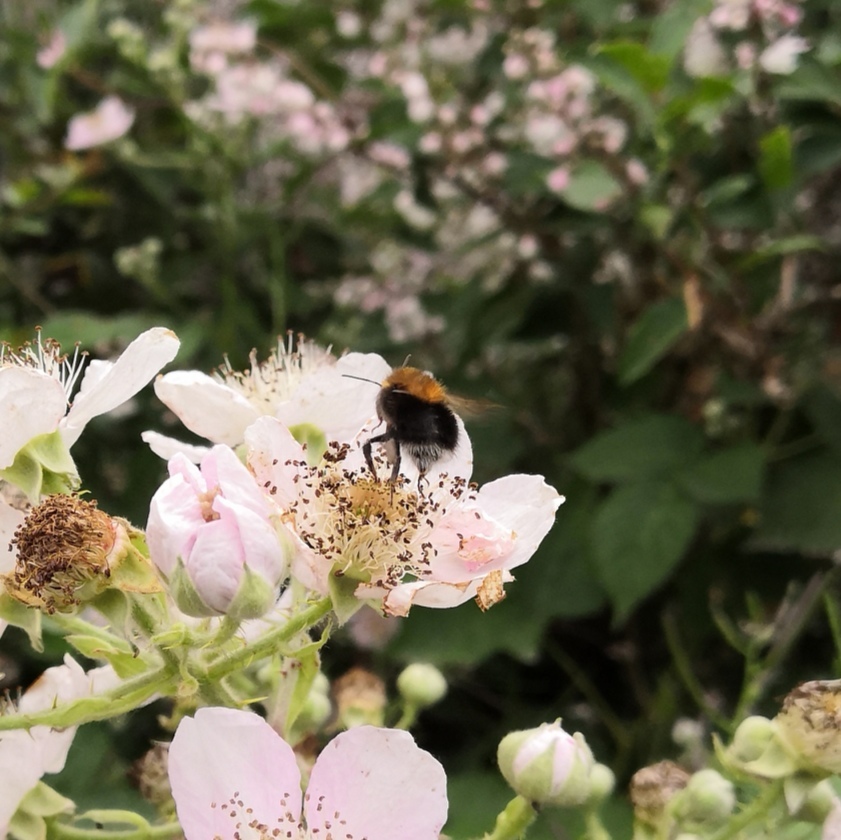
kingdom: Animalia
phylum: Arthropoda
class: Insecta
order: Hymenoptera
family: Apidae
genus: Bombus
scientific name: Bombus hypnorum
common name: New garden bumblebee
